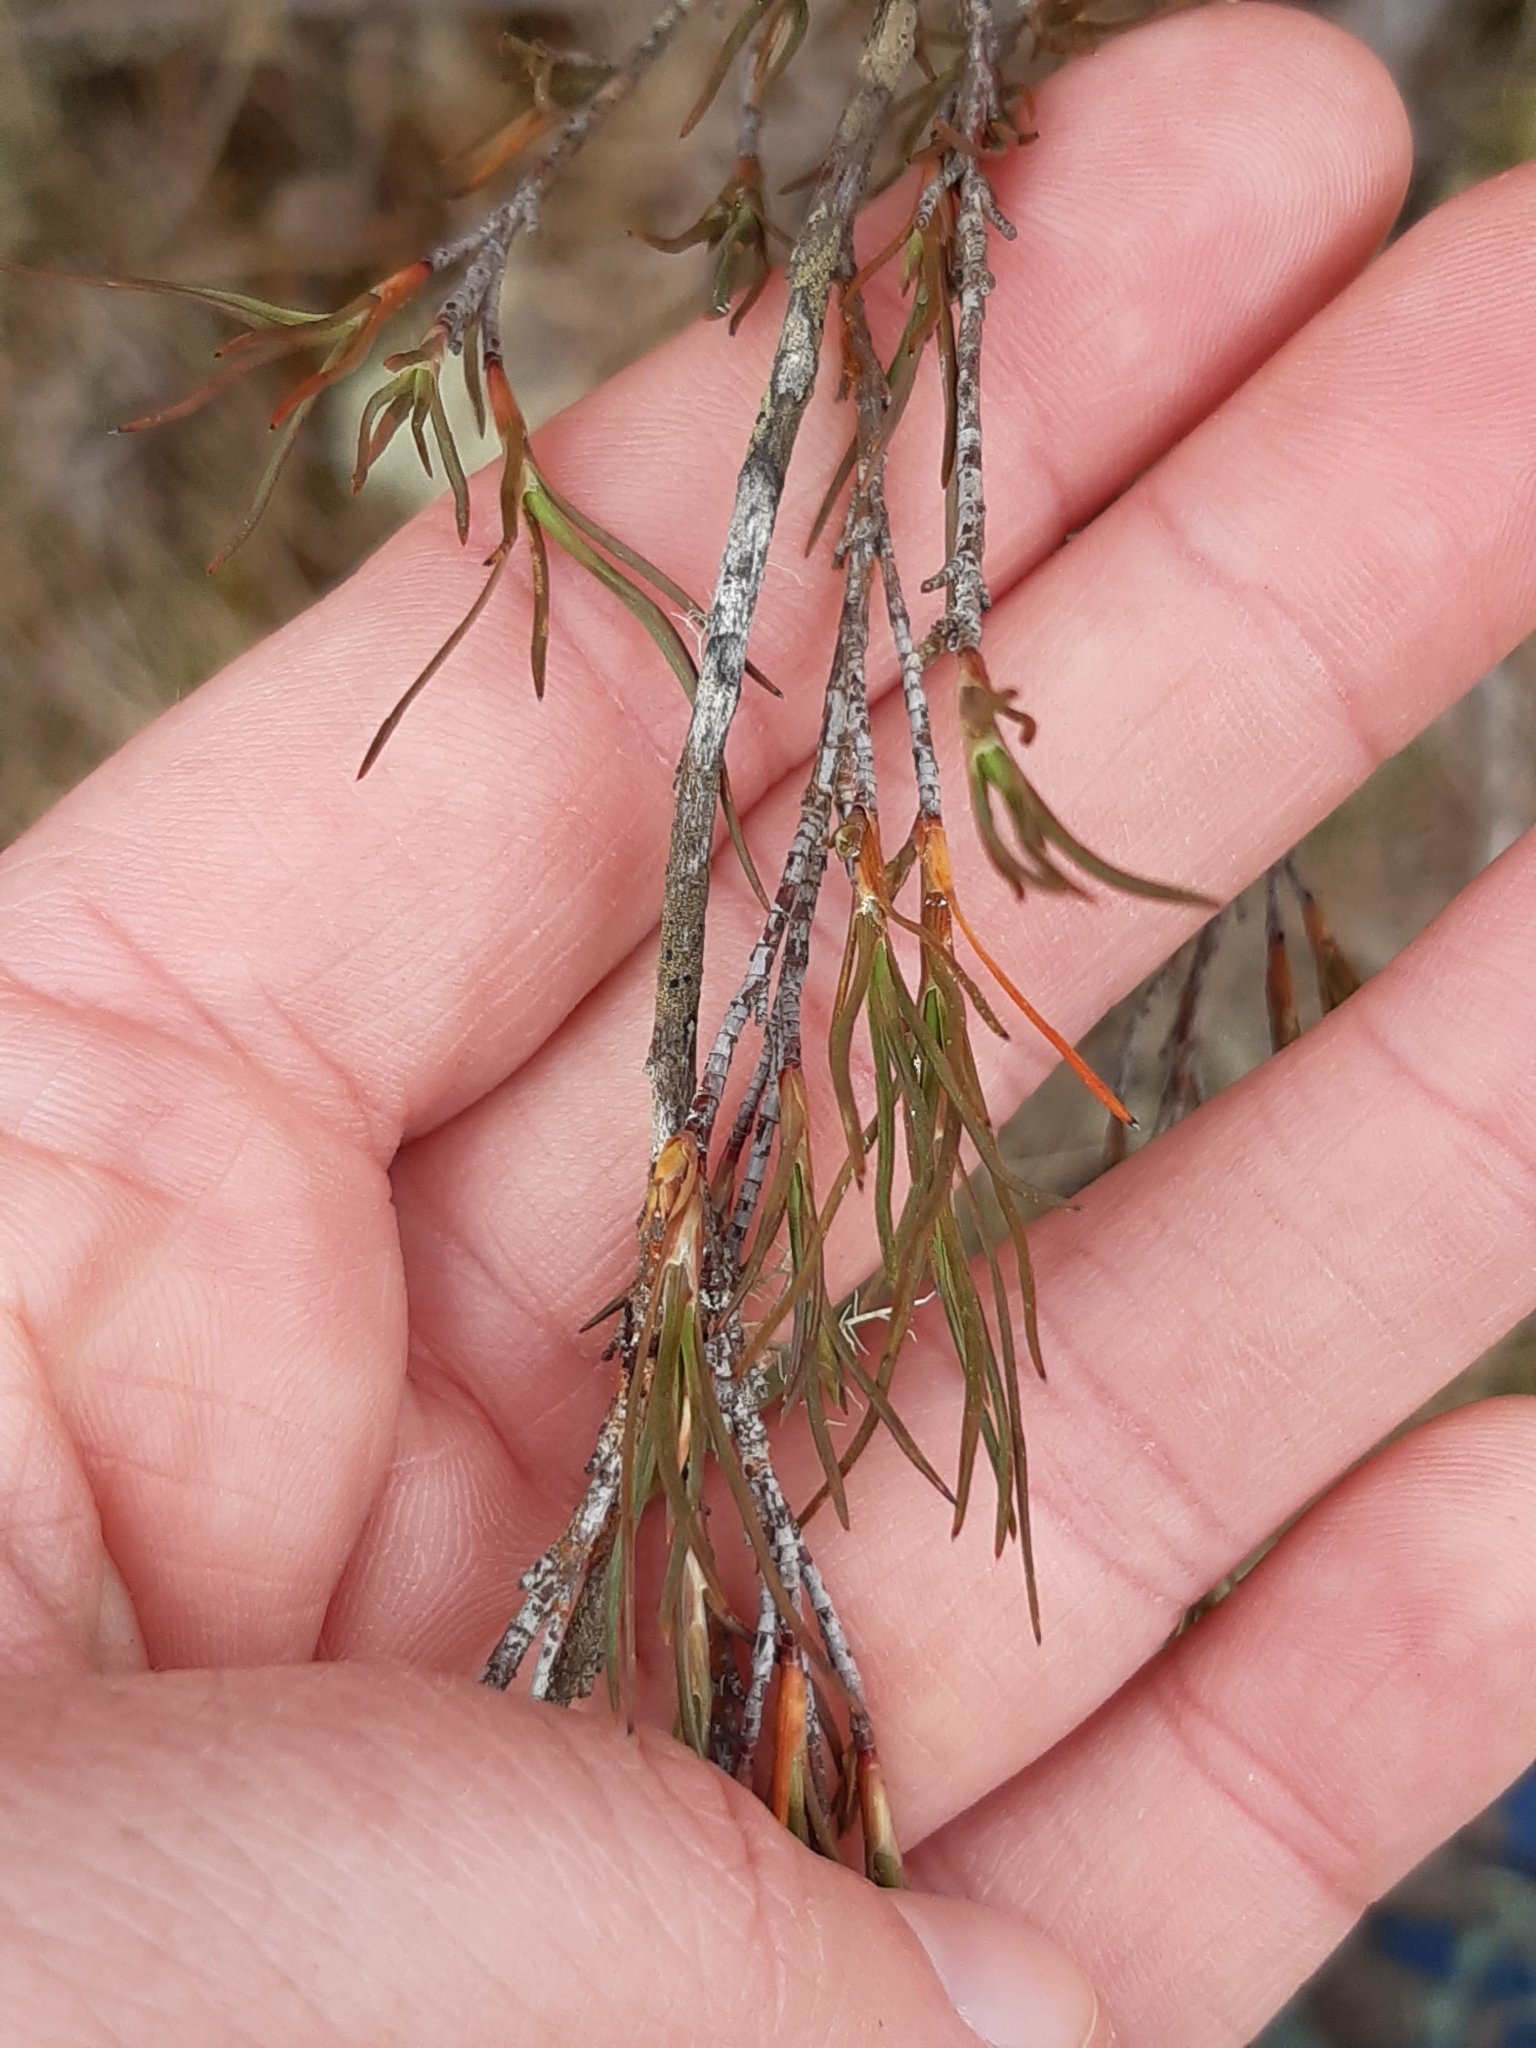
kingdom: Plantae
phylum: Tracheophyta
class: Magnoliopsida
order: Ericales
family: Ericaceae
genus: Dracophyllum
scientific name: Dracophyllum subulatum
